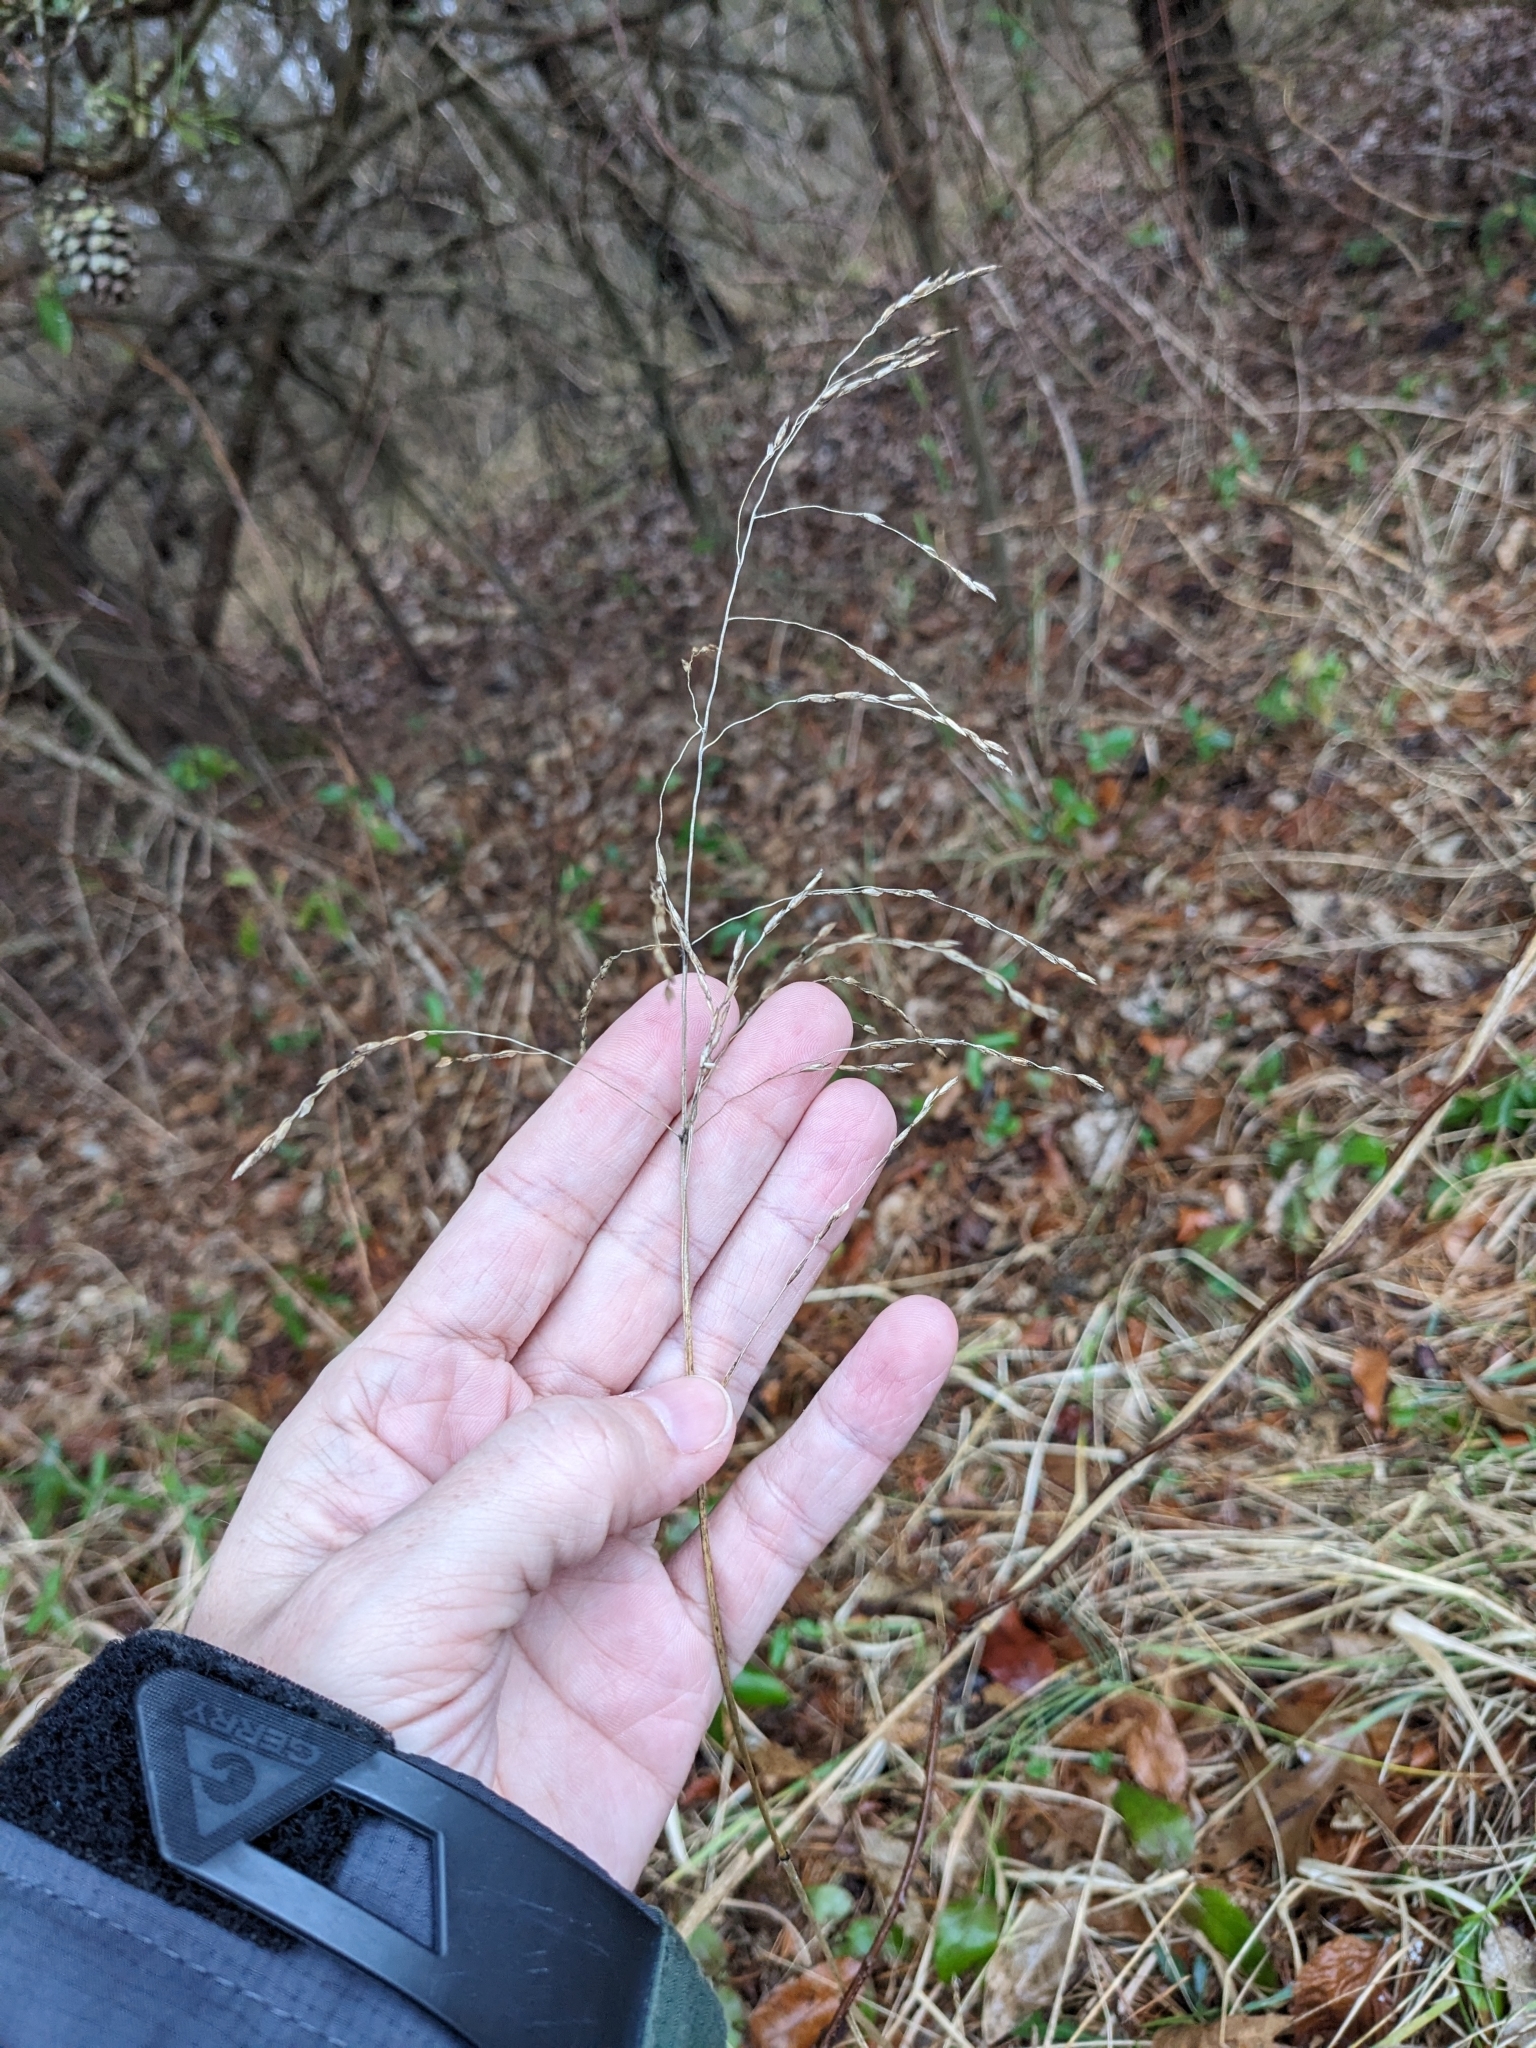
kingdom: Plantae
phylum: Tracheophyta
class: Liliopsida
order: Poales
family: Poaceae
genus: Tridens
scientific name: Tridens flavus
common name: Purpletop
